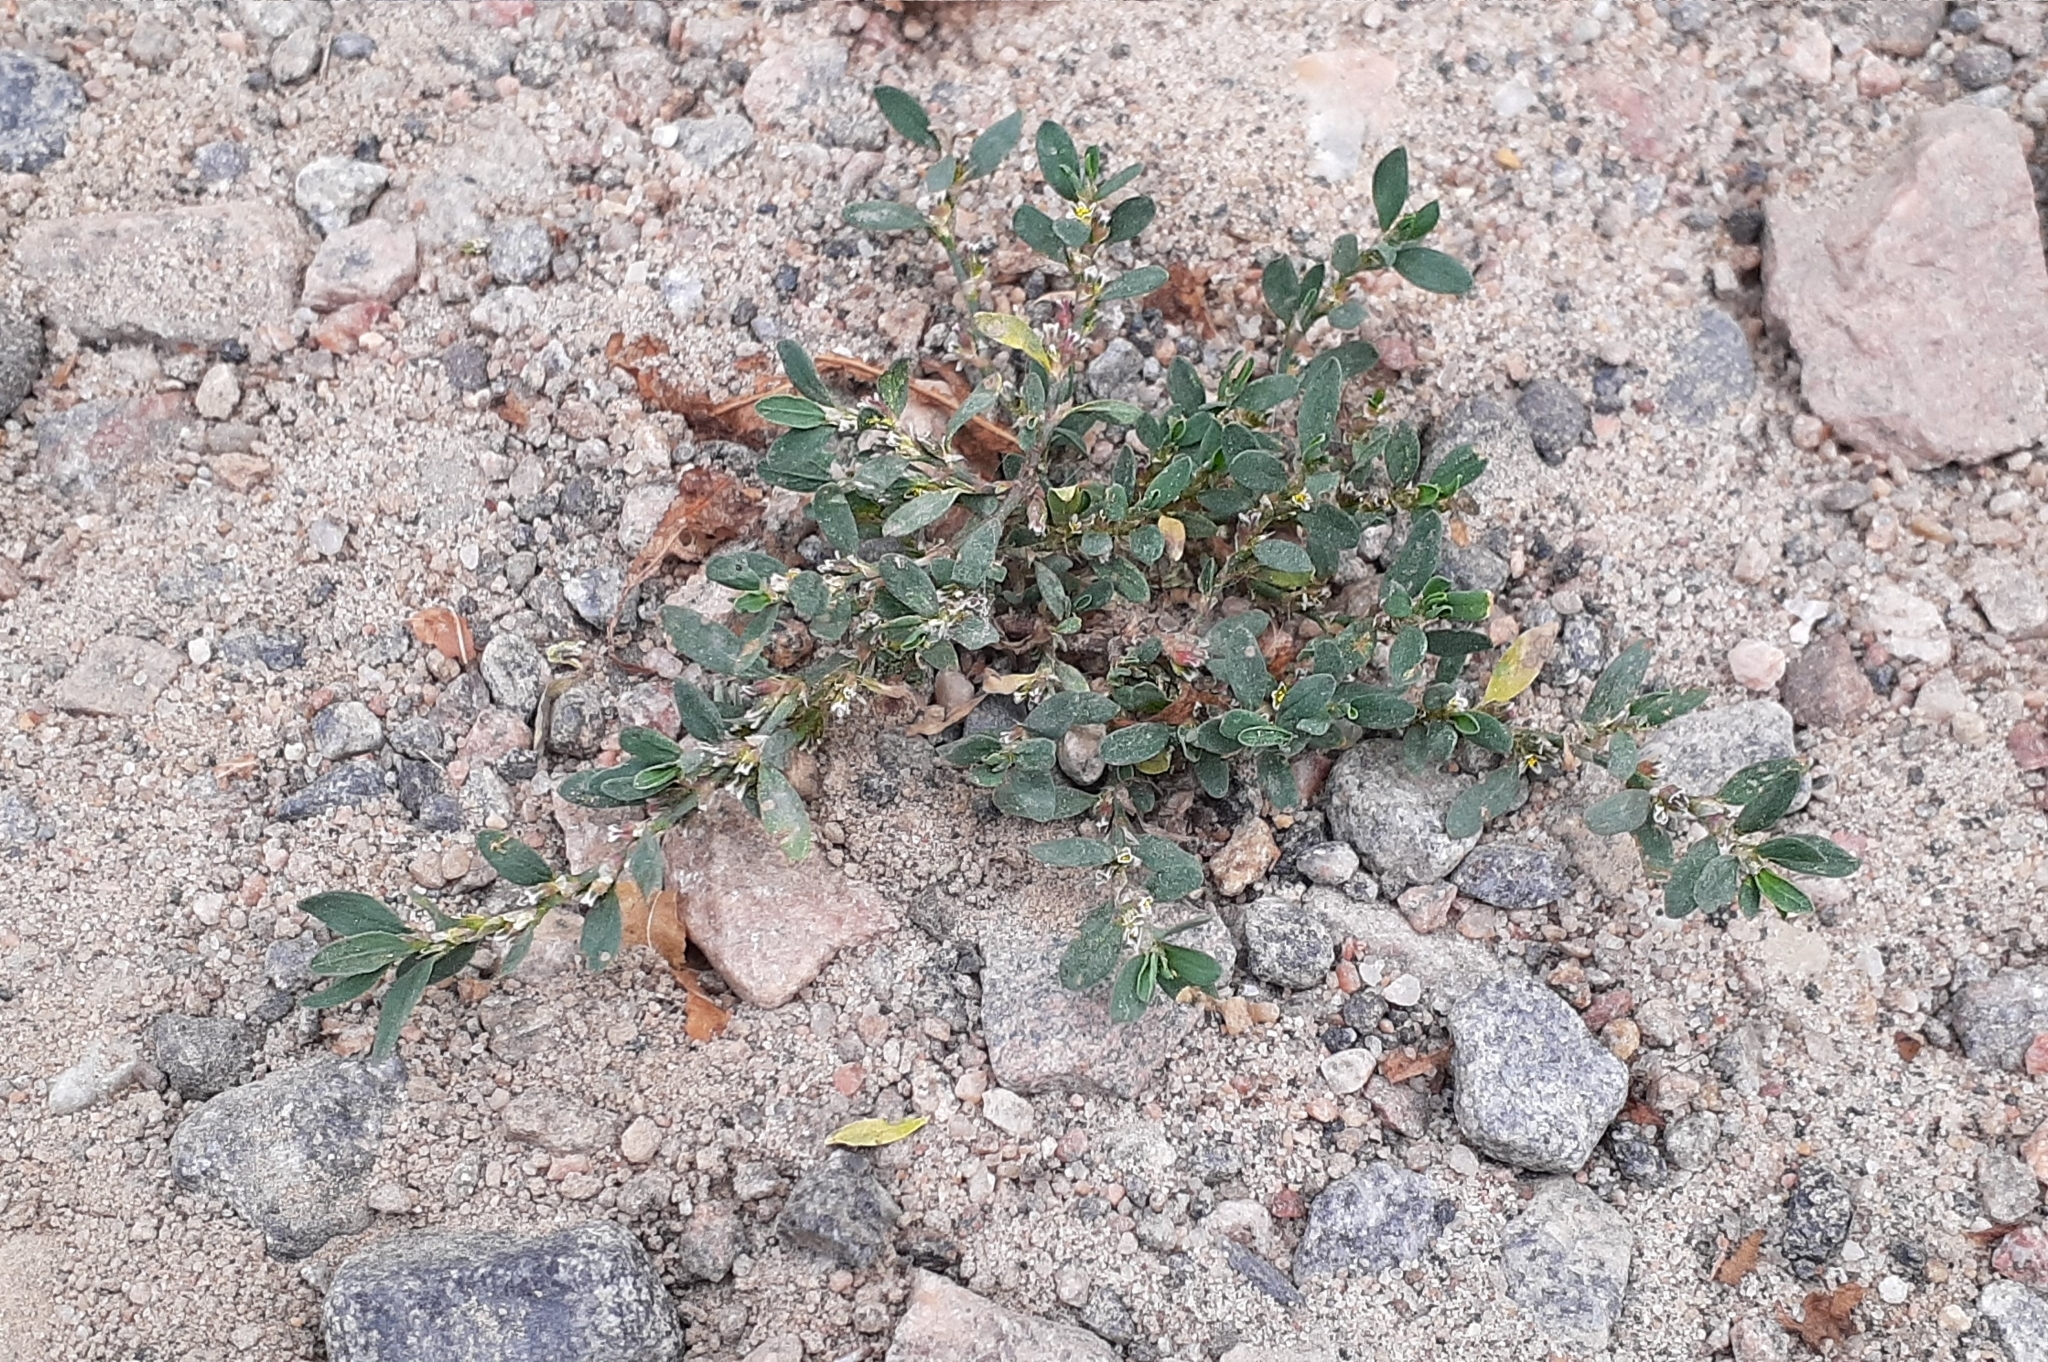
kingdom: Plantae
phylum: Tracheophyta
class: Magnoliopsida
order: Caryophyllales
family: Polygonaceae
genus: Polygonum
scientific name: Polygonum aviculare
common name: Prostrate knotweed
